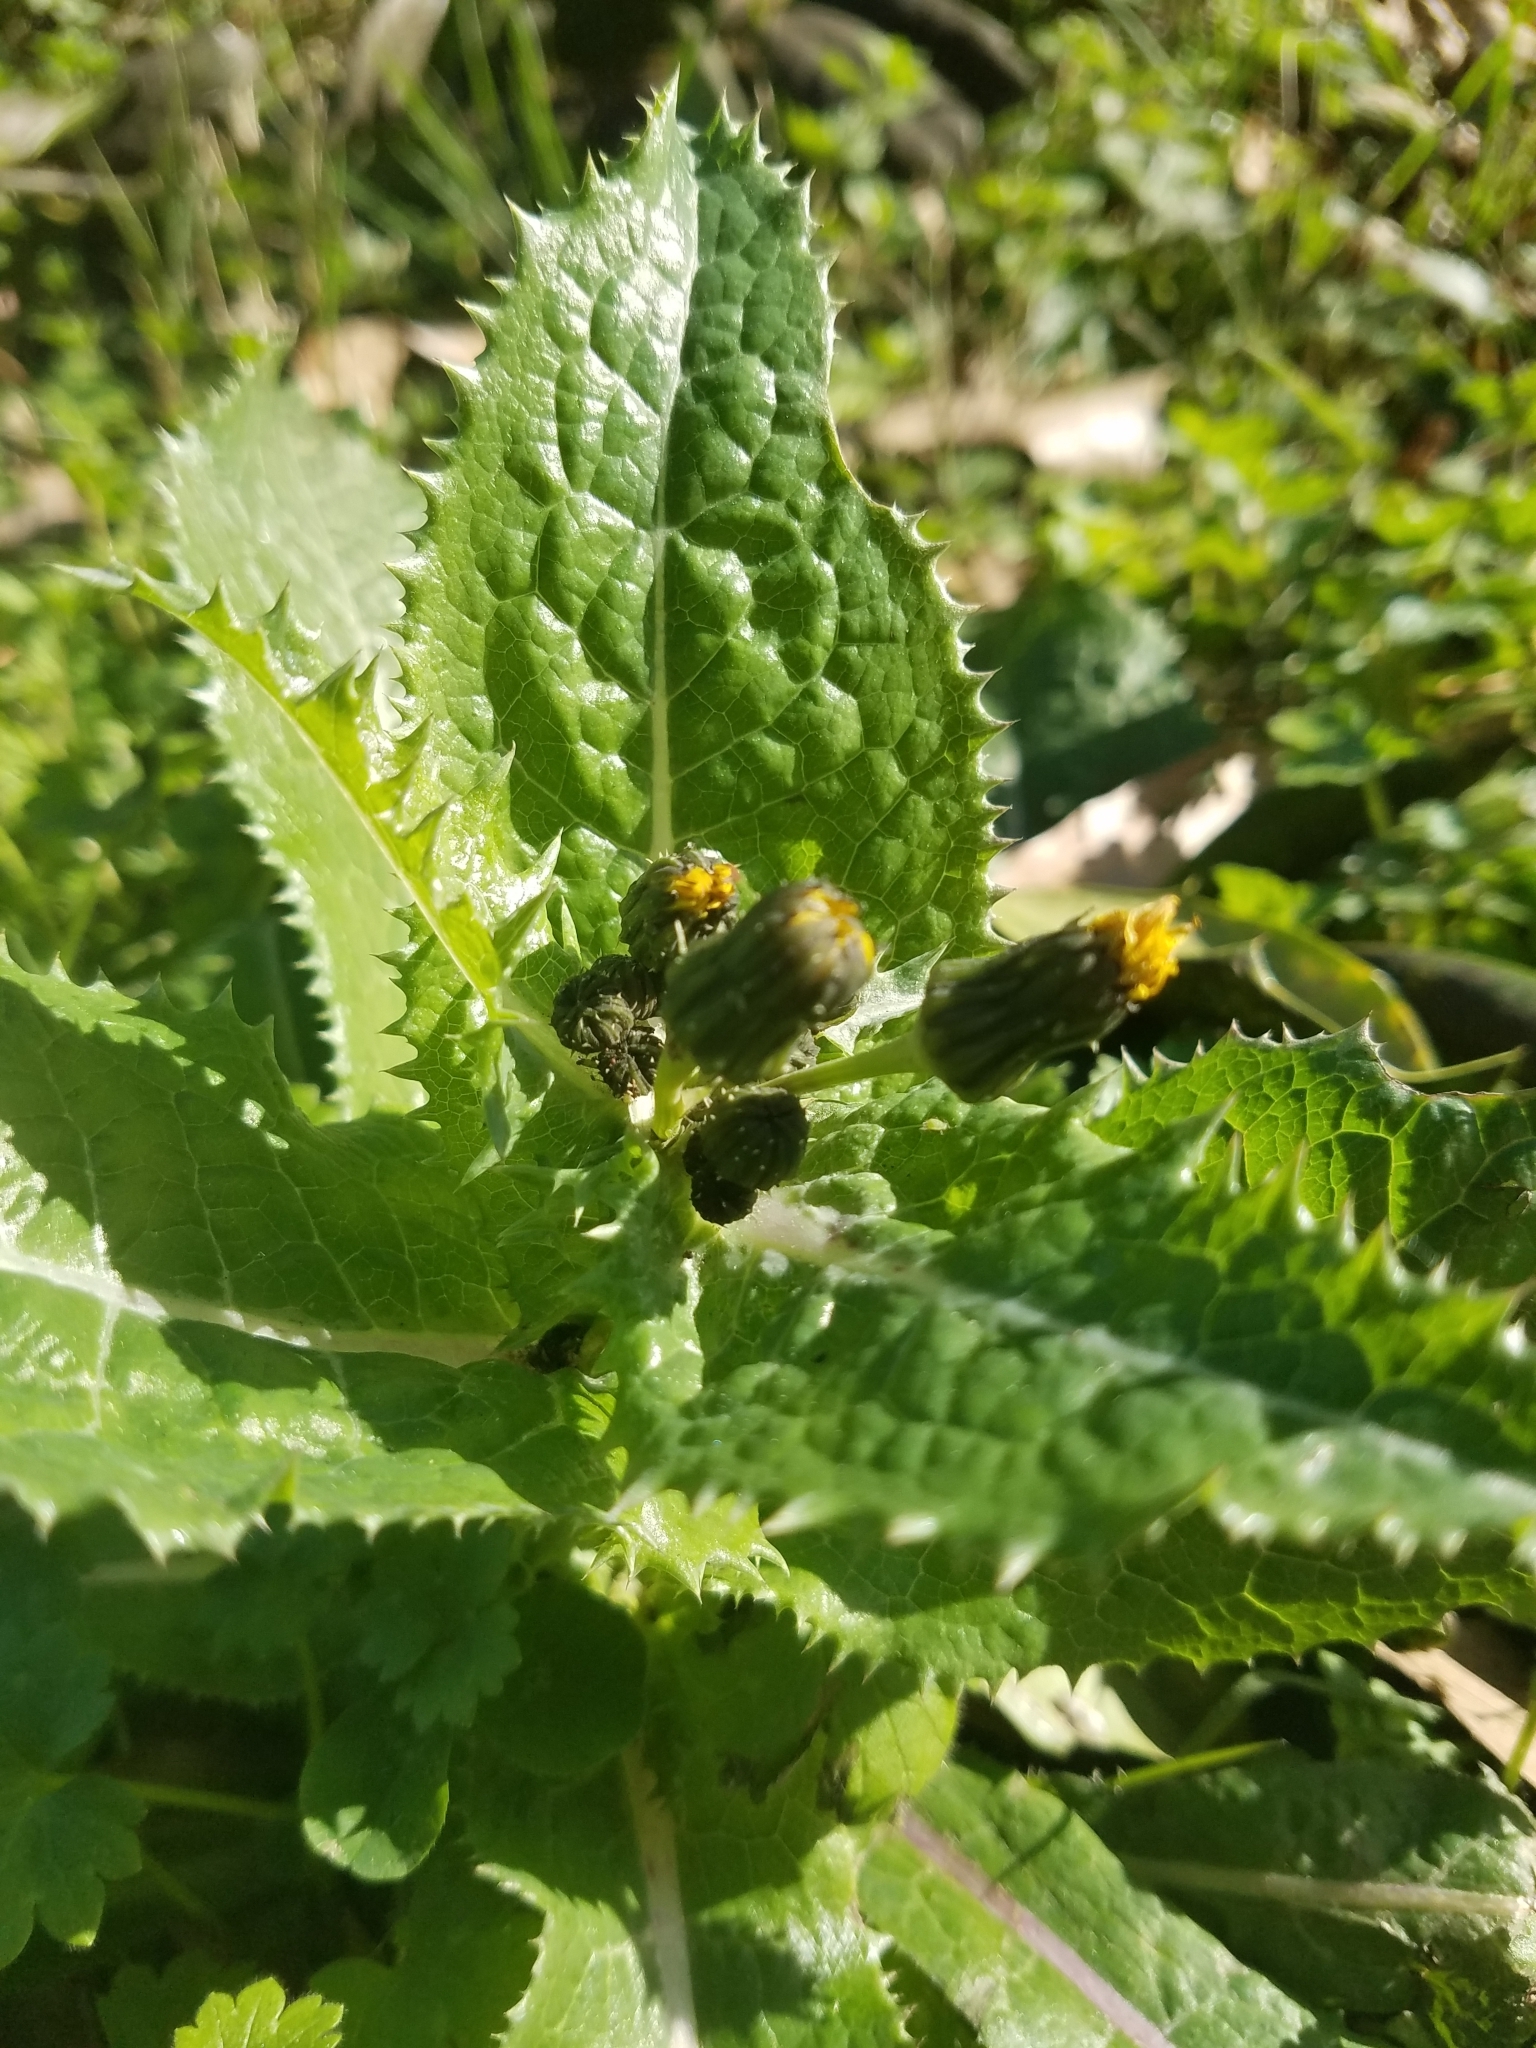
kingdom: Plantae
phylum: Tracheophyta
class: Magnoliopsida
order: Asterales
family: Asteraceae
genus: Sonchus
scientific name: Sonchus asper
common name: Prickly sow-thistle
